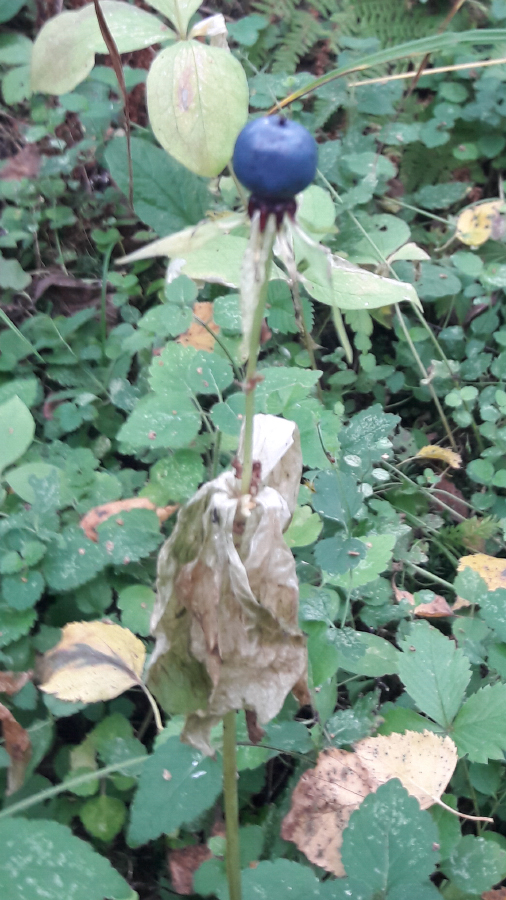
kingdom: Plantae
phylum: Tracheophyta
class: Liliopsida
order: Liliales
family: Melanthiaceae
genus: Paris
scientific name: Paris quadrifolia
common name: Herb-paris
